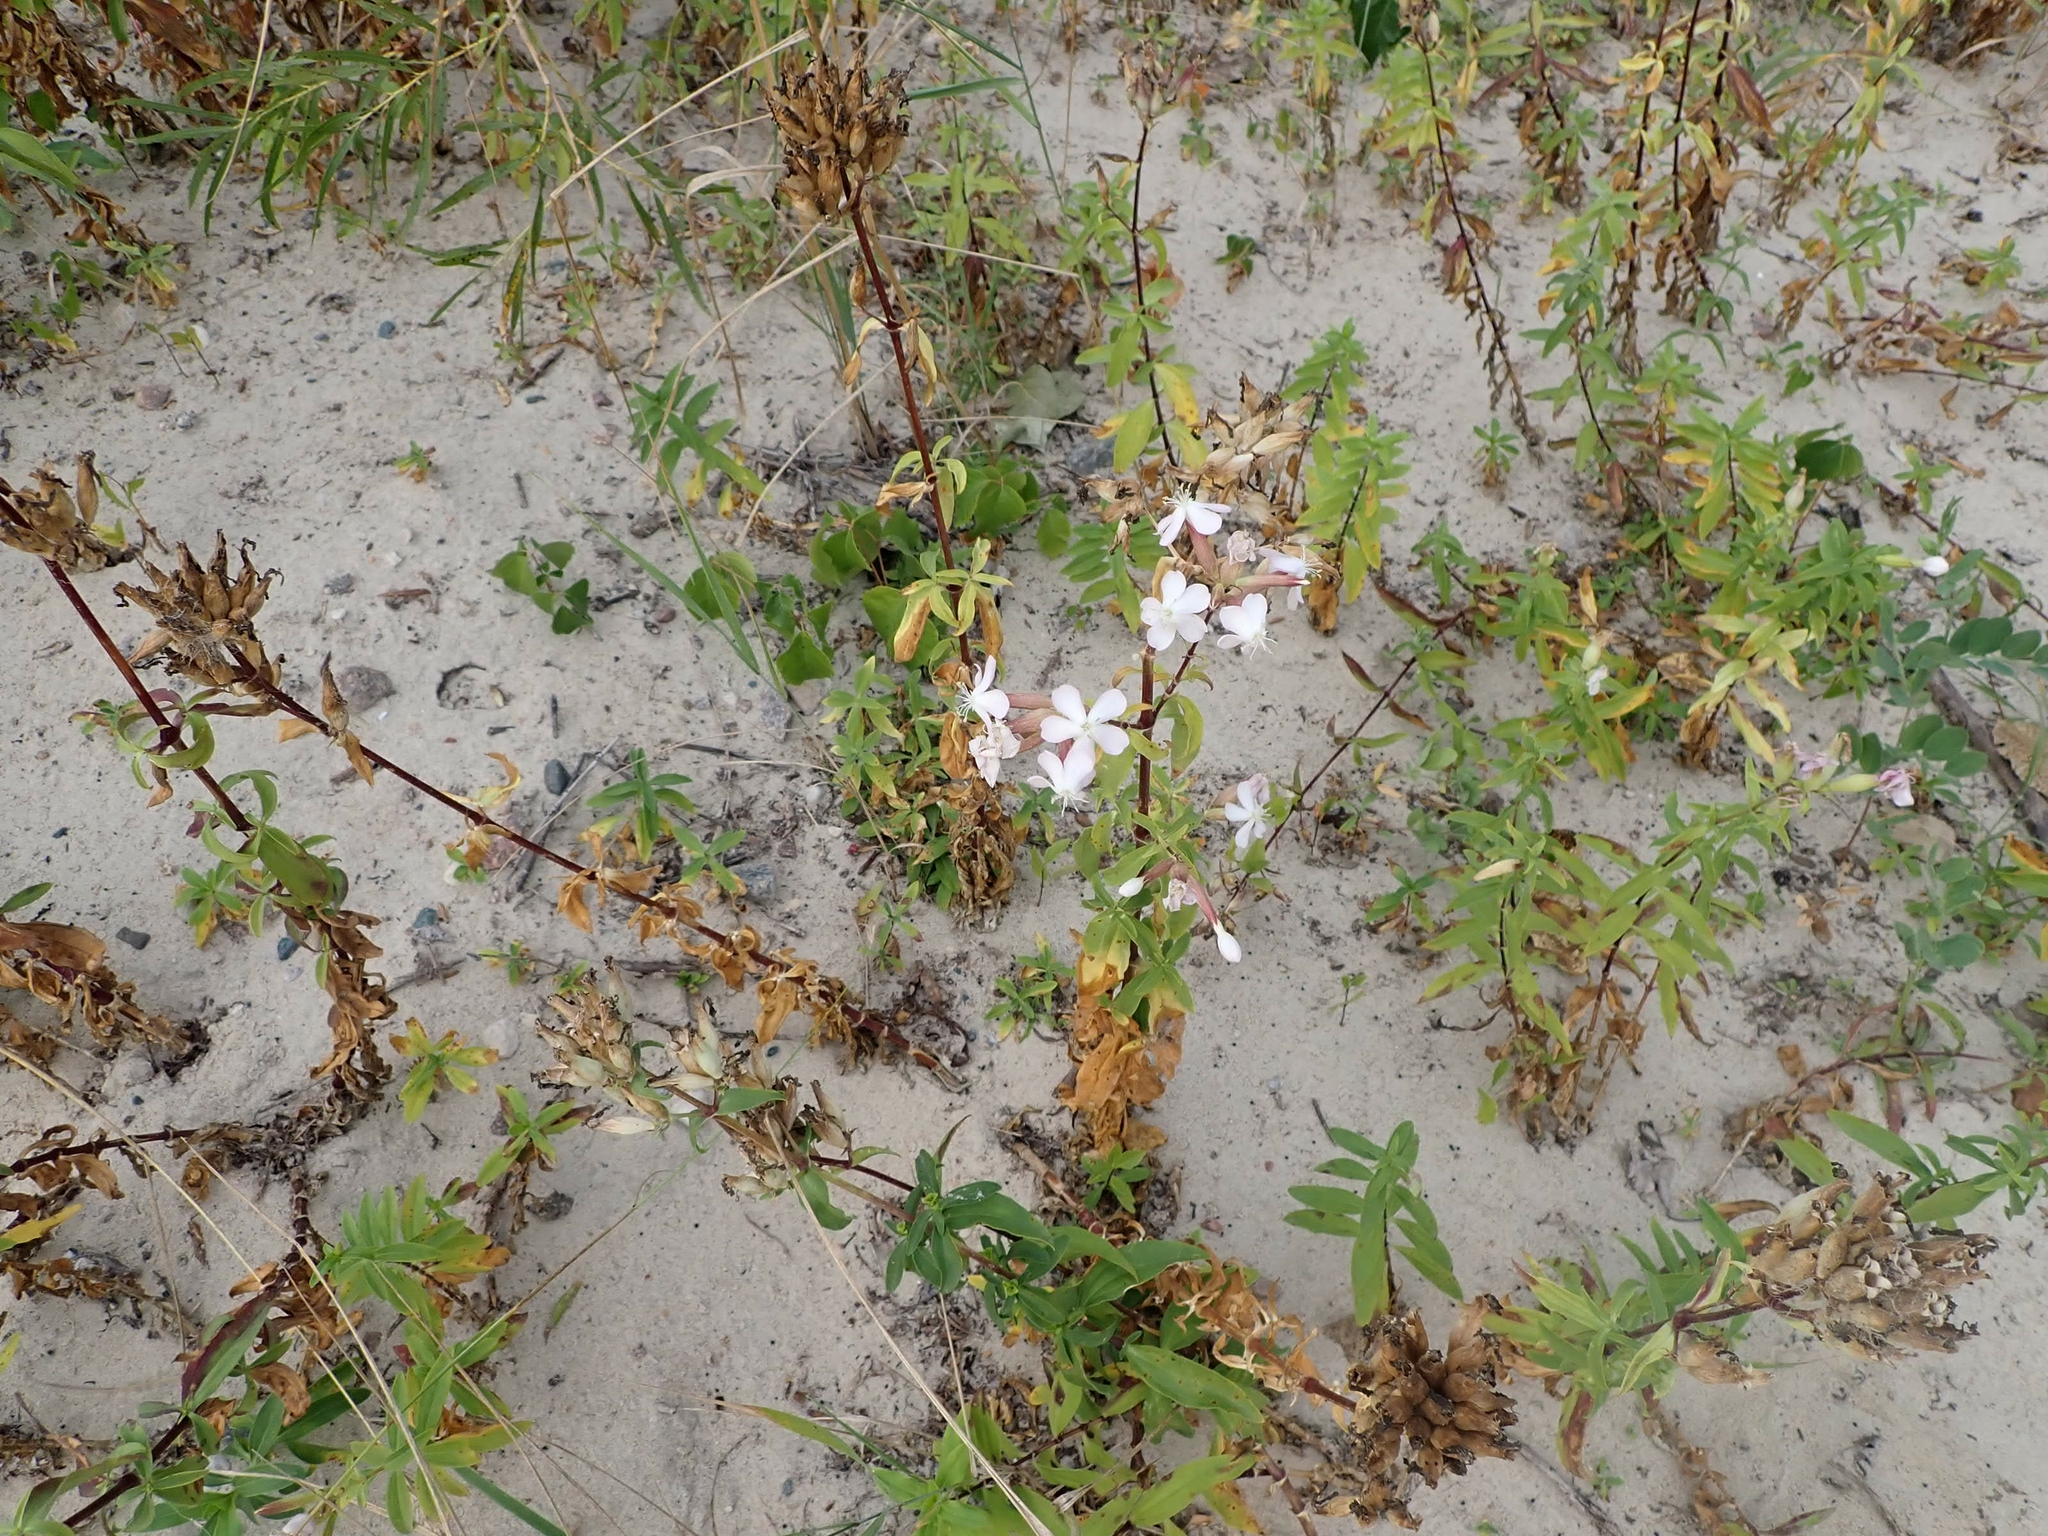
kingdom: Plantae
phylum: Tracheophyta
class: Magnoliopsida
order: Caryophyllales
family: Caryophyllaceae
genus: Saponaria
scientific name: Saponaria officinalis
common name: Soapwort
